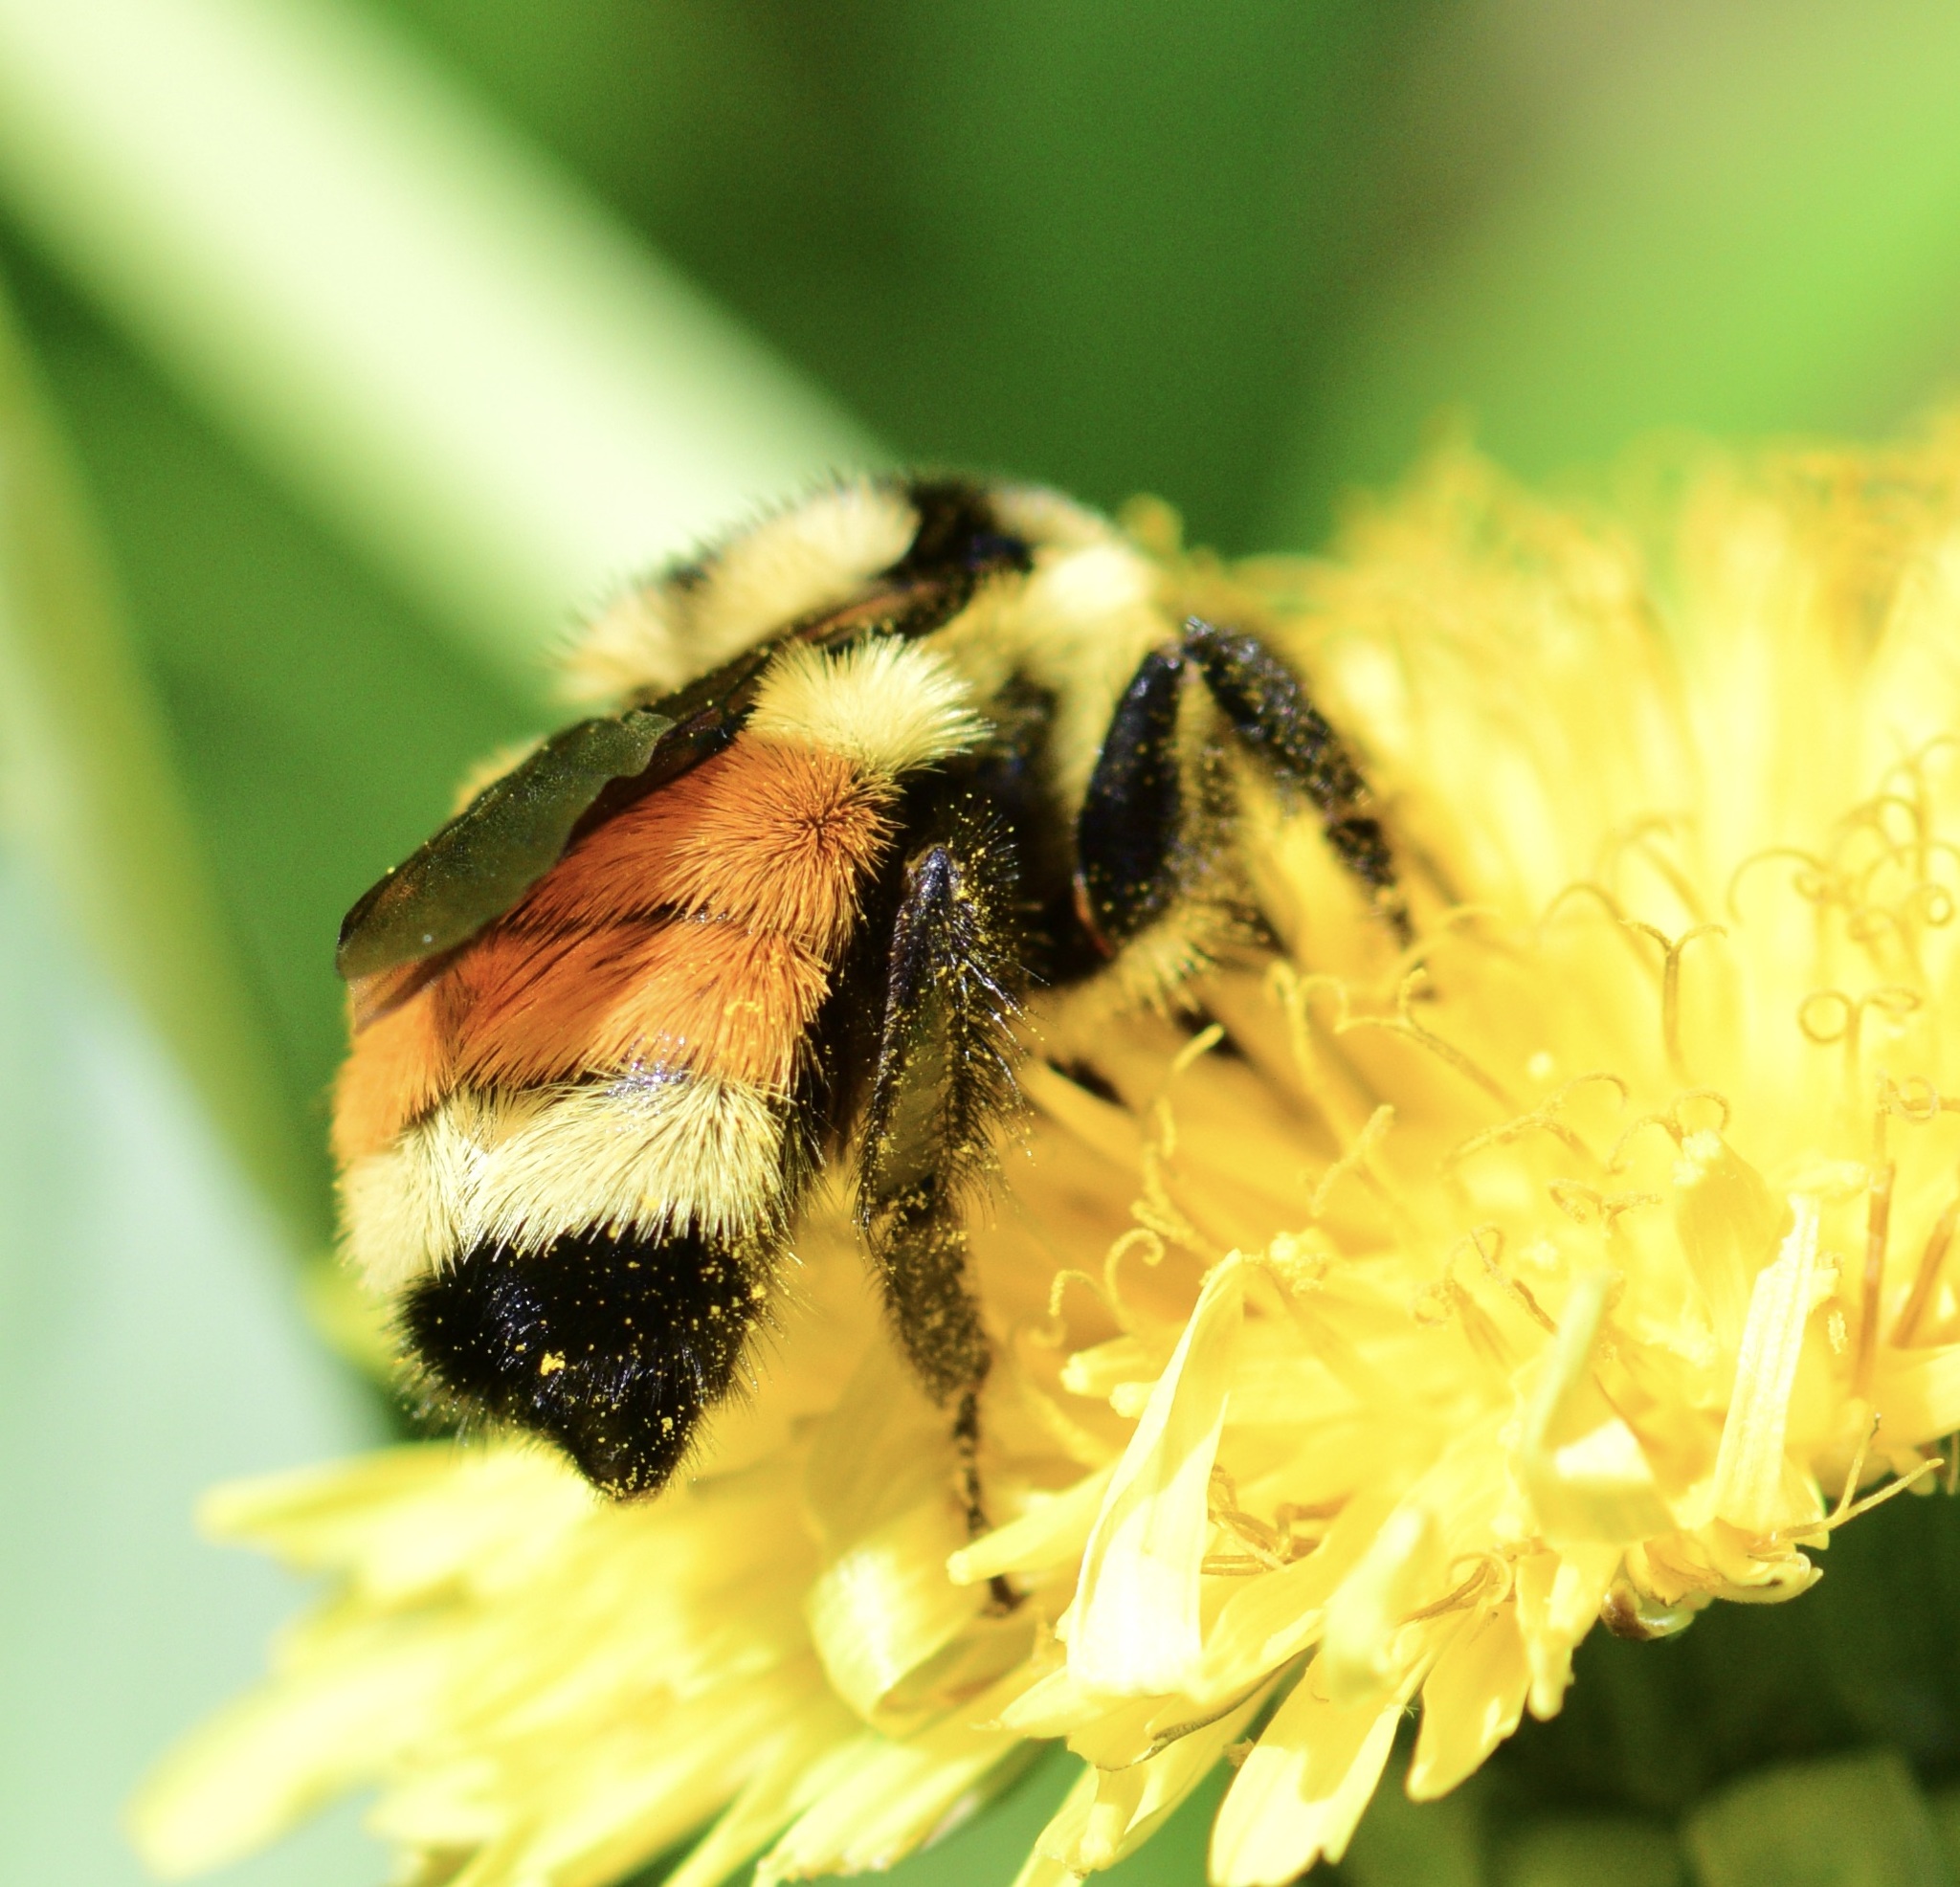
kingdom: Animalia
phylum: Arthropoda
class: Insecta
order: Hymenoptera
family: Apidae
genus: Bombus
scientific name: Bombus ternarius
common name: Tri-colored bumble bee
